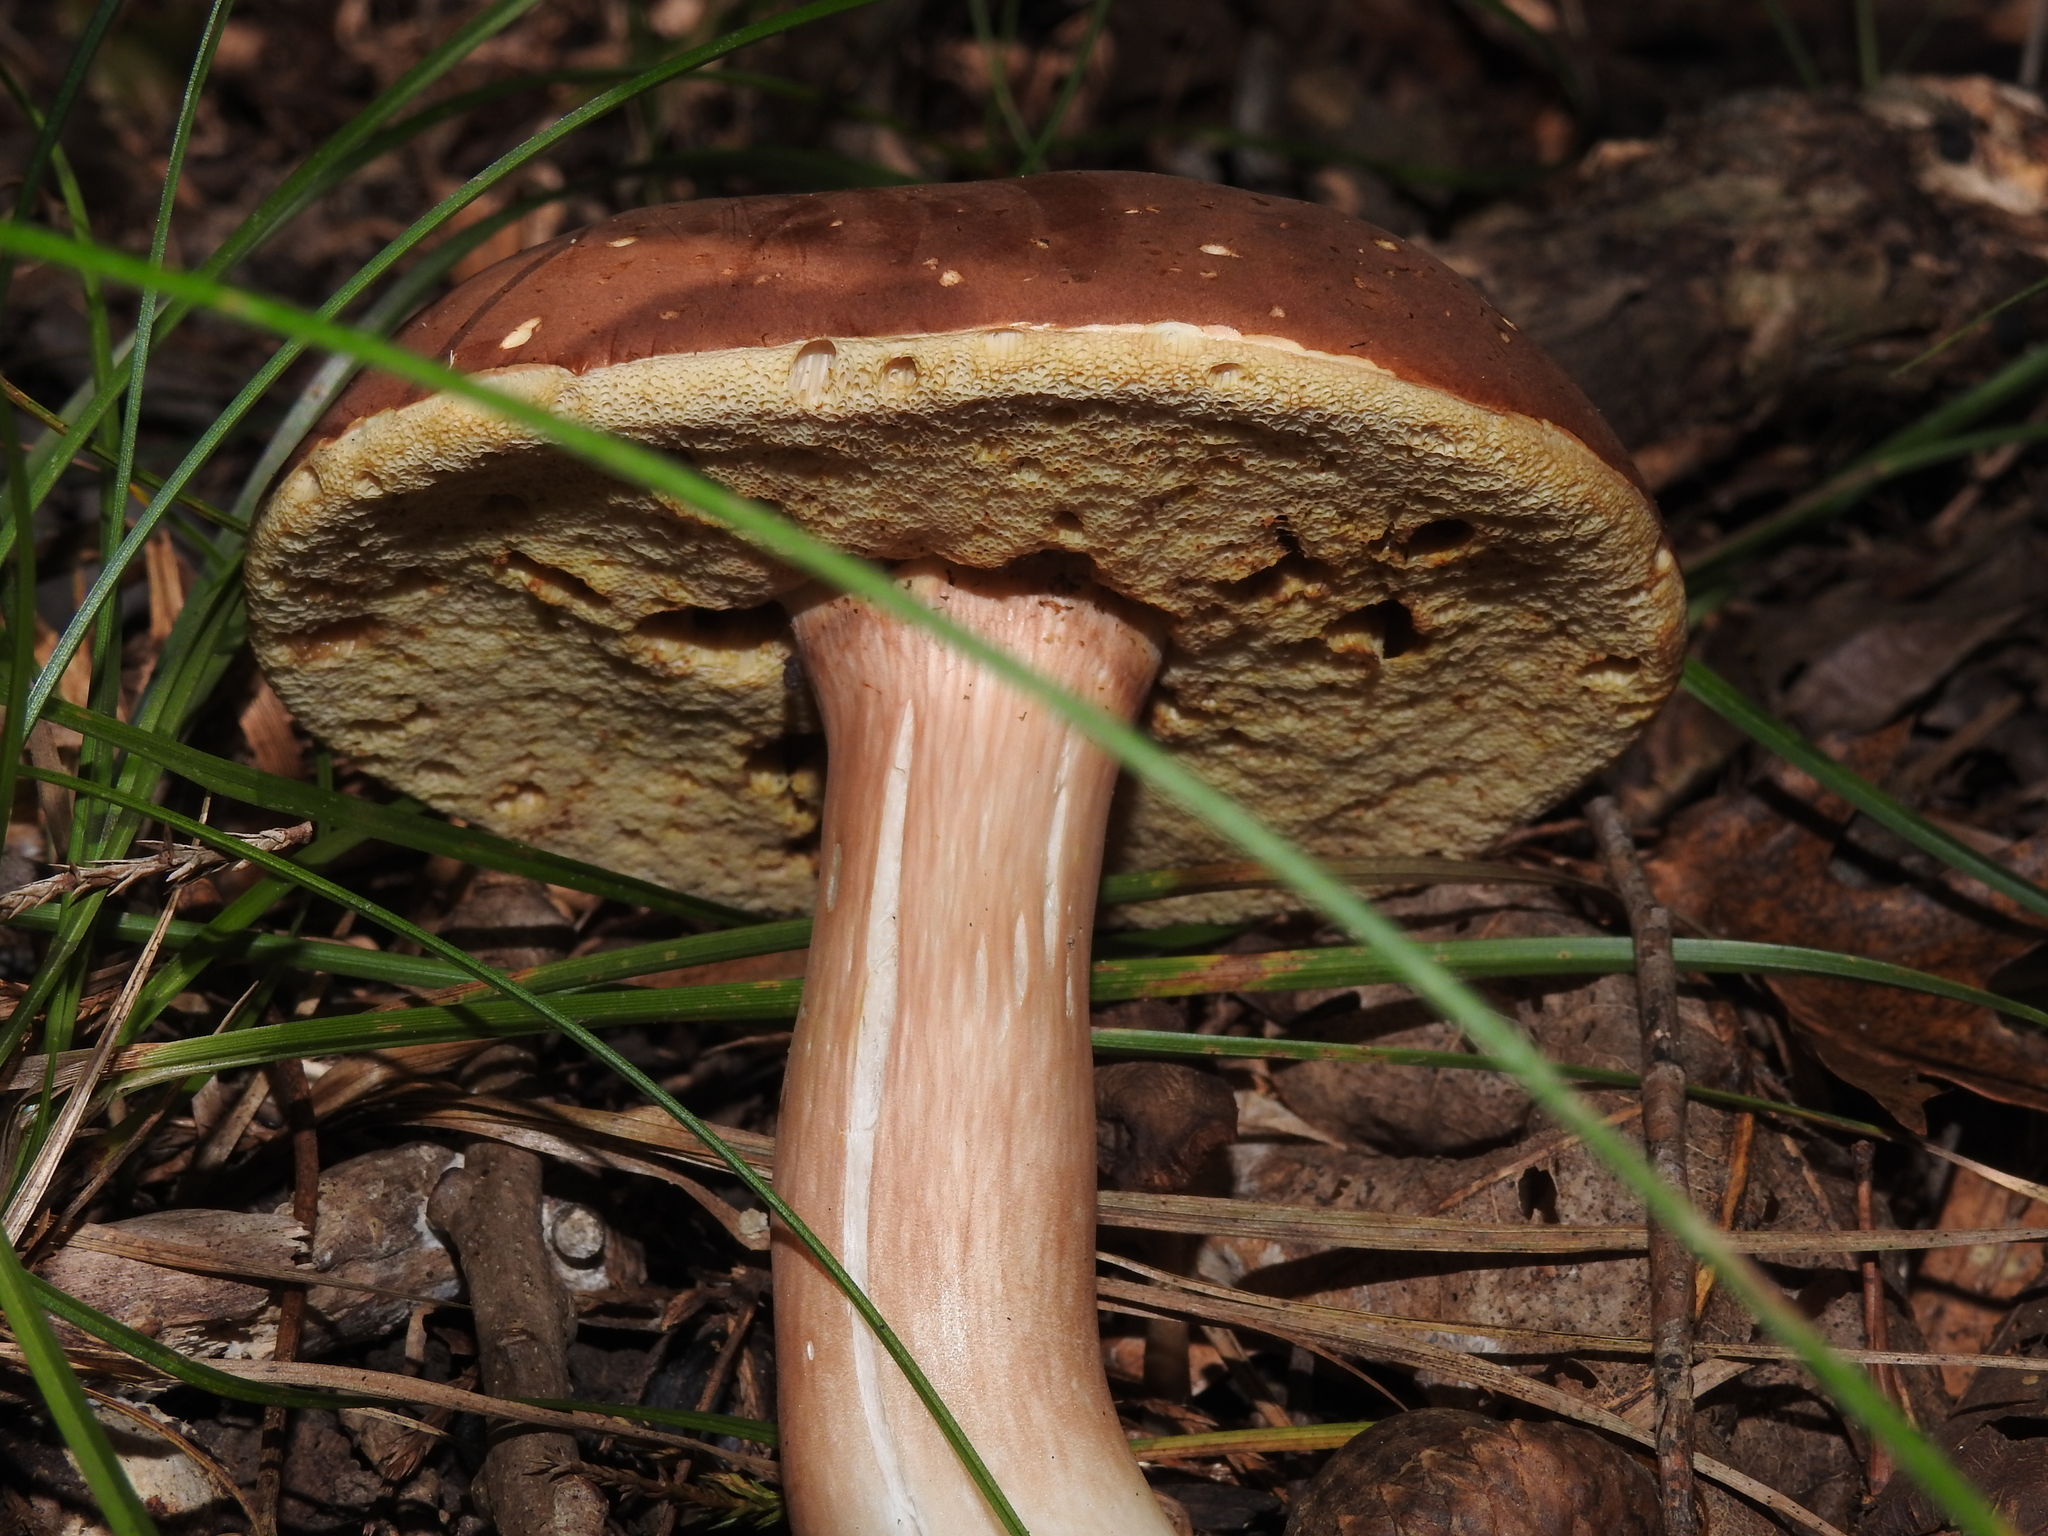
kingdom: Fungi
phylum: Basidiomycota
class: Agaricomycetes
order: Boletales
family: Boletaceae
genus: Xanthoconium
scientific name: Xanthoconium purpureum
